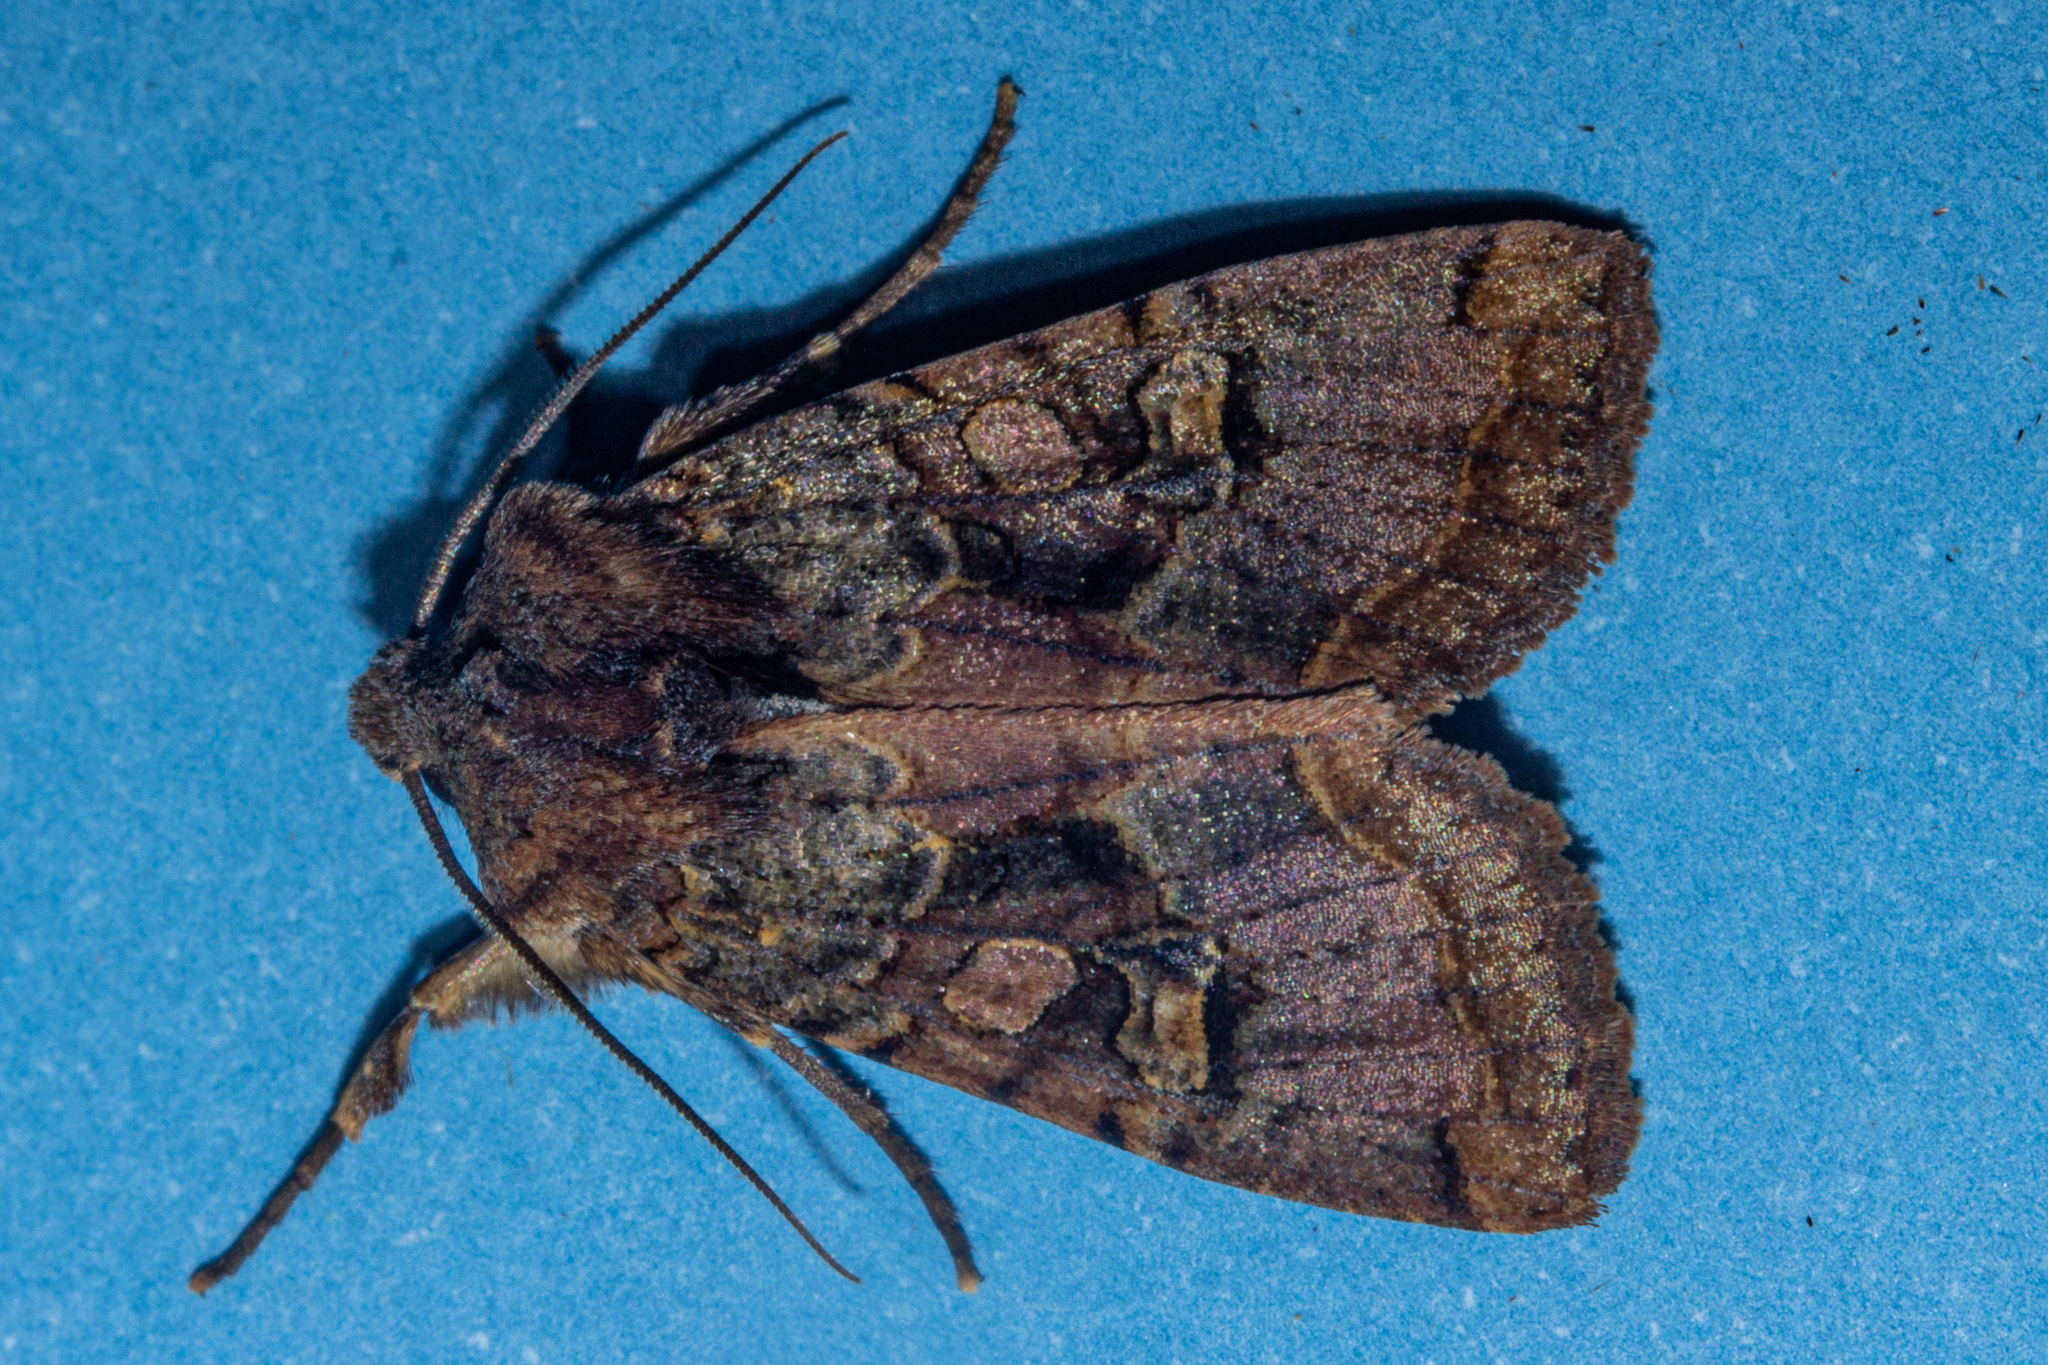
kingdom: Animalia
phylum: Arthropoda
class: Insecta
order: Lepidoptera
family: Noctuidae
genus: Meterana
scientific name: Meterana tartaraea
